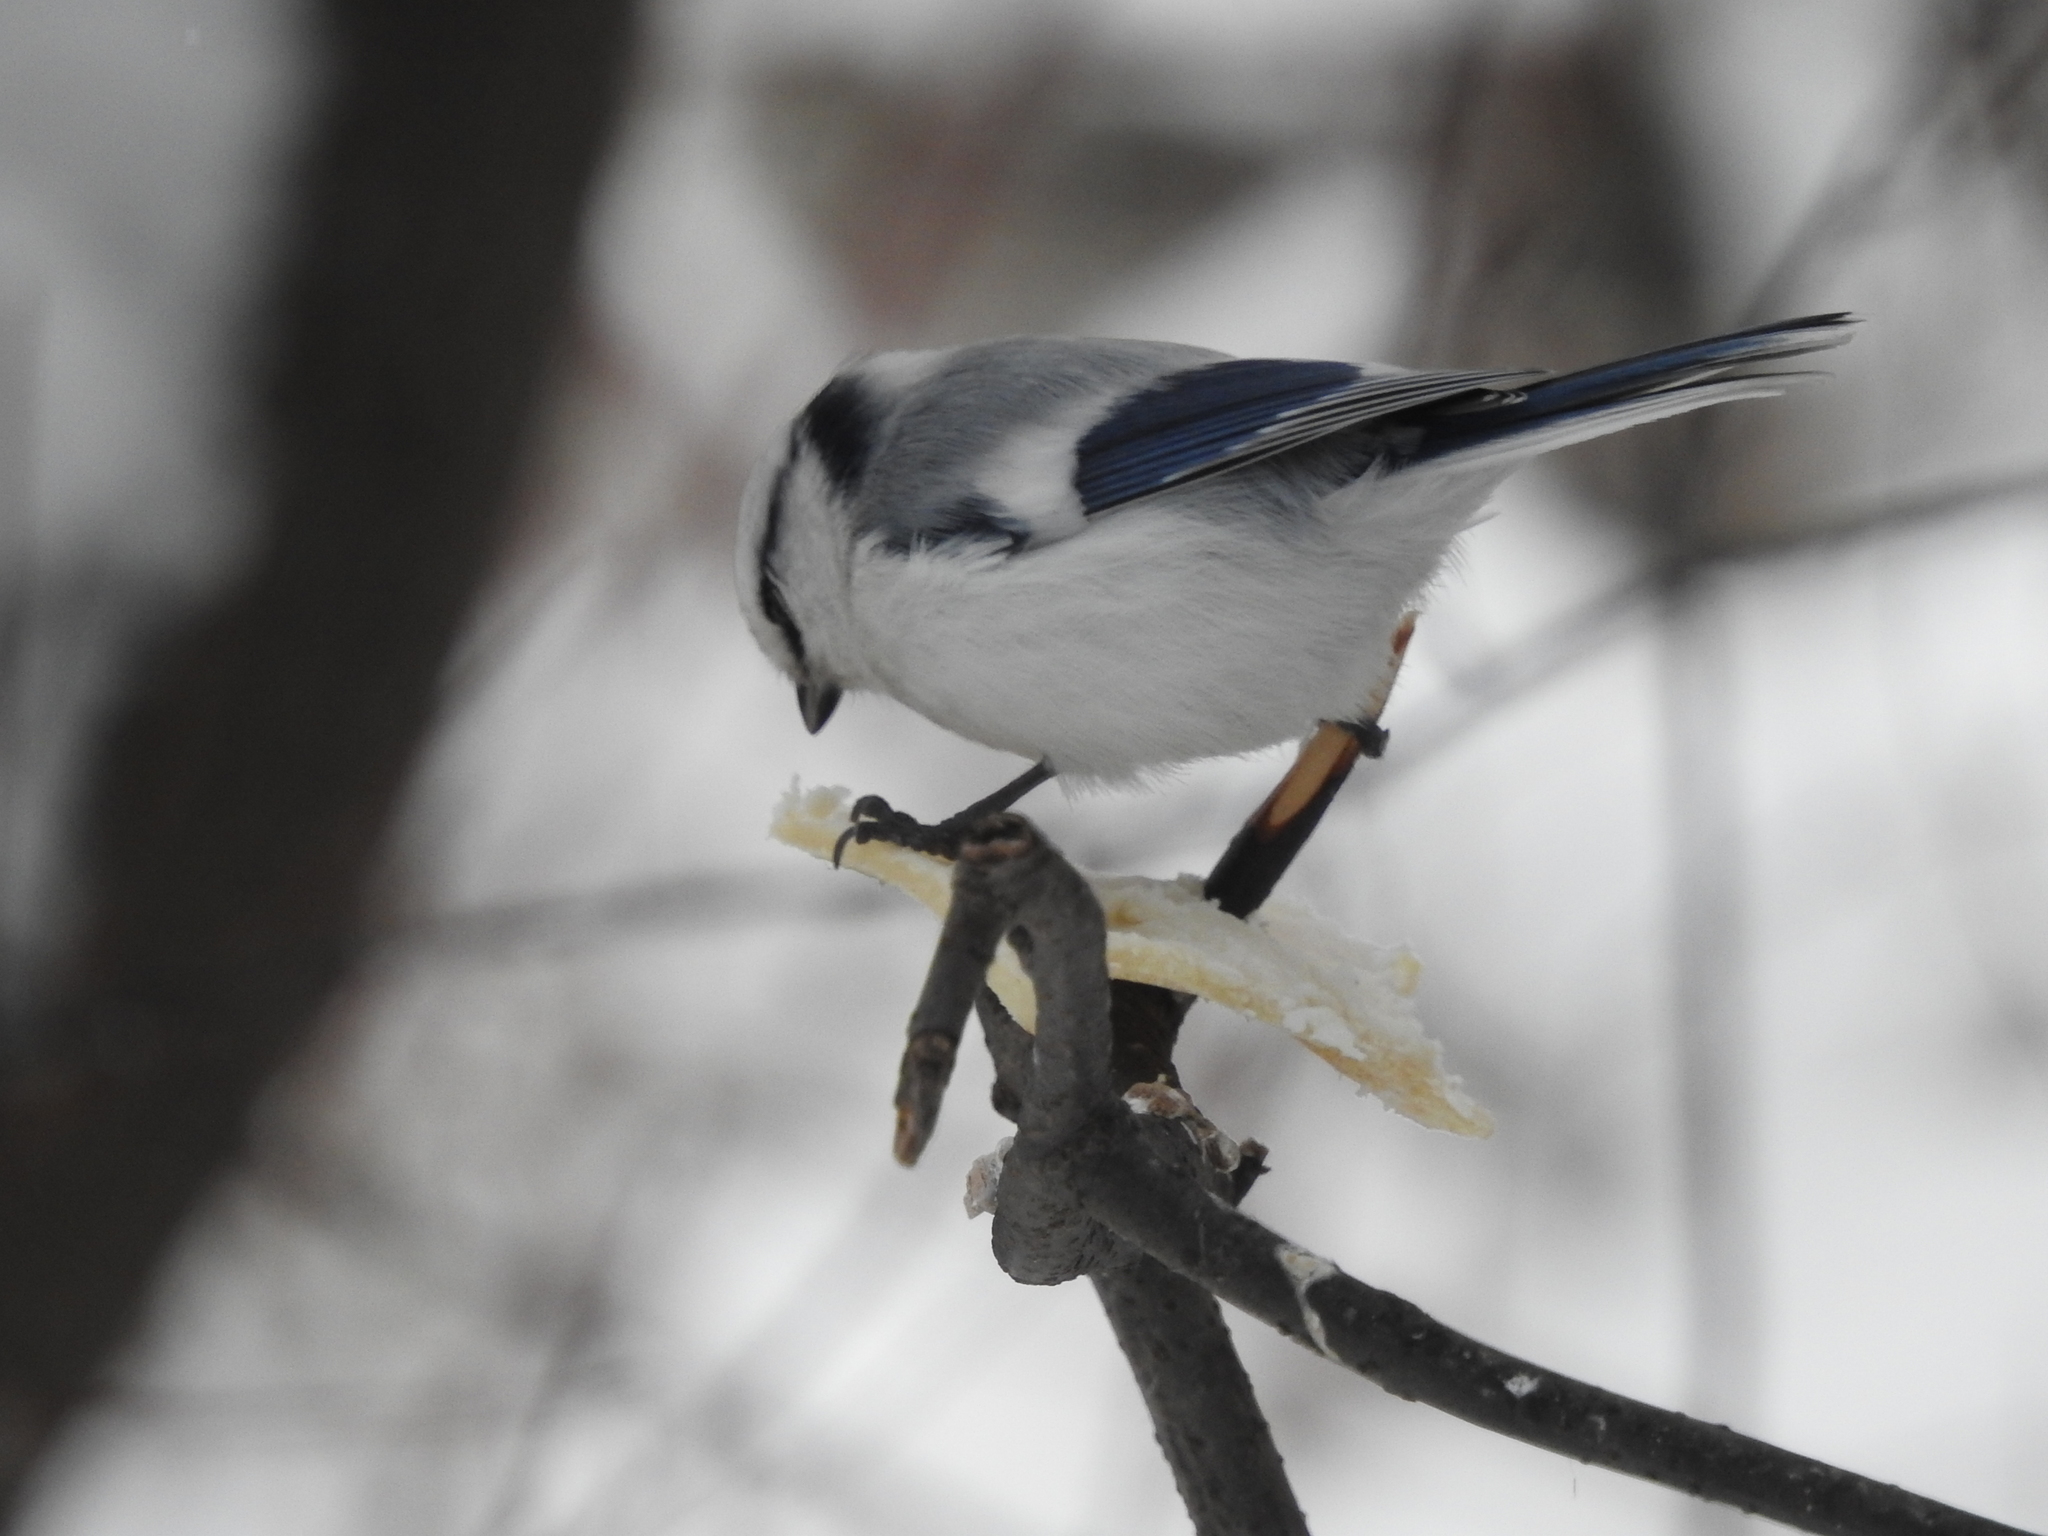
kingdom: Animalia
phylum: Chordata
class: Aves
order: Passeriformes
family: Paridae
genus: Cyanistes
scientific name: Cyanistes cyanus
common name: Azure tit
